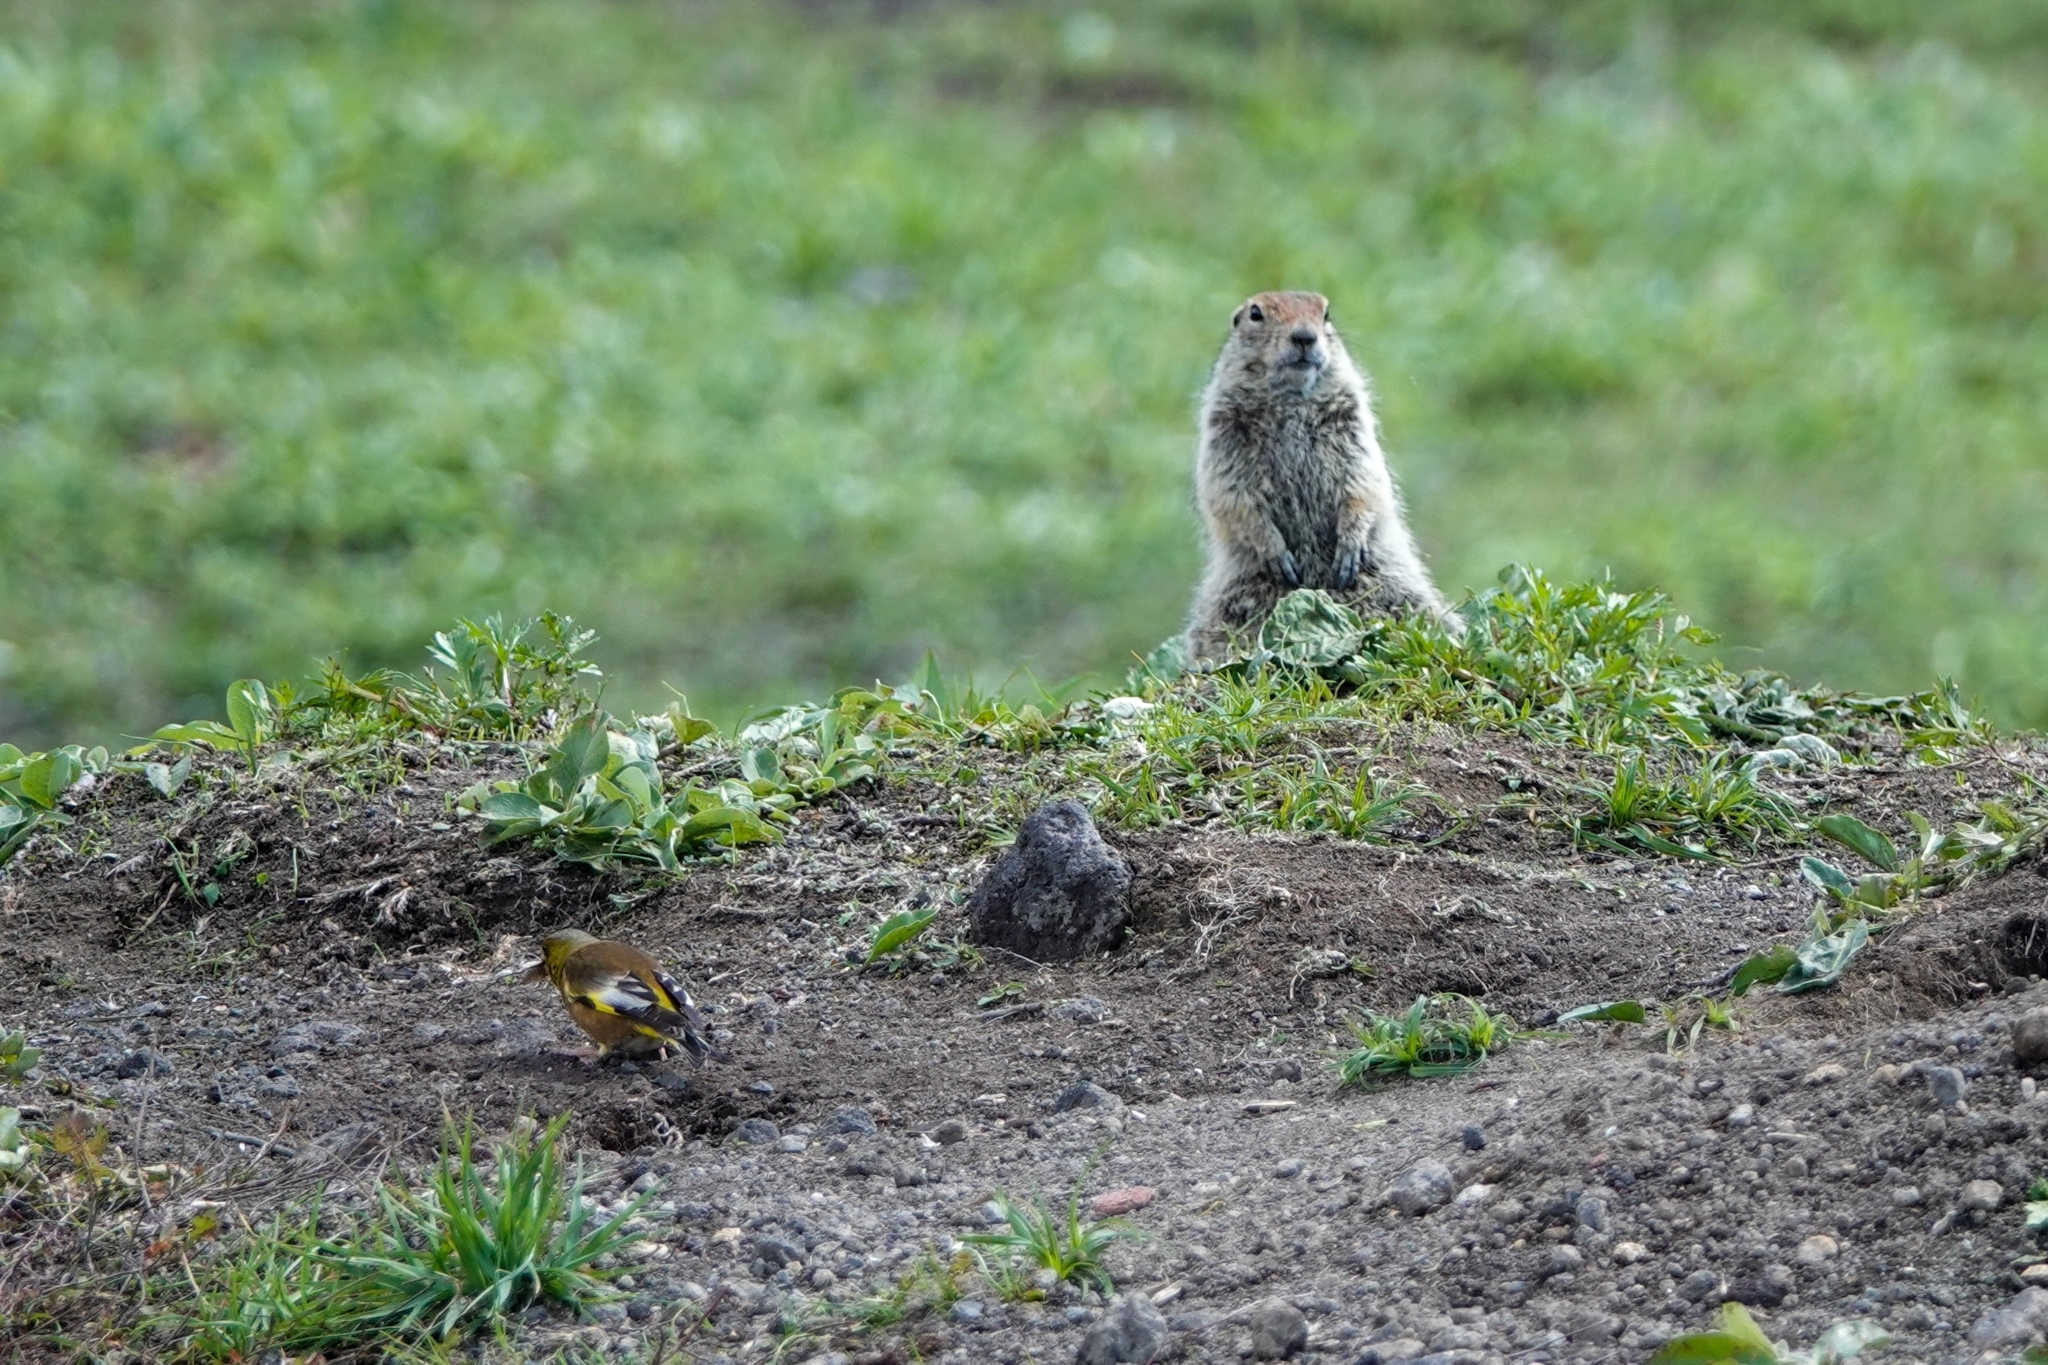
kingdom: Plantae
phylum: Tracheophyta
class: Liliopsida
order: Poales
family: Poaceae
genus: Chloris
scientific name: Chloris sinica
